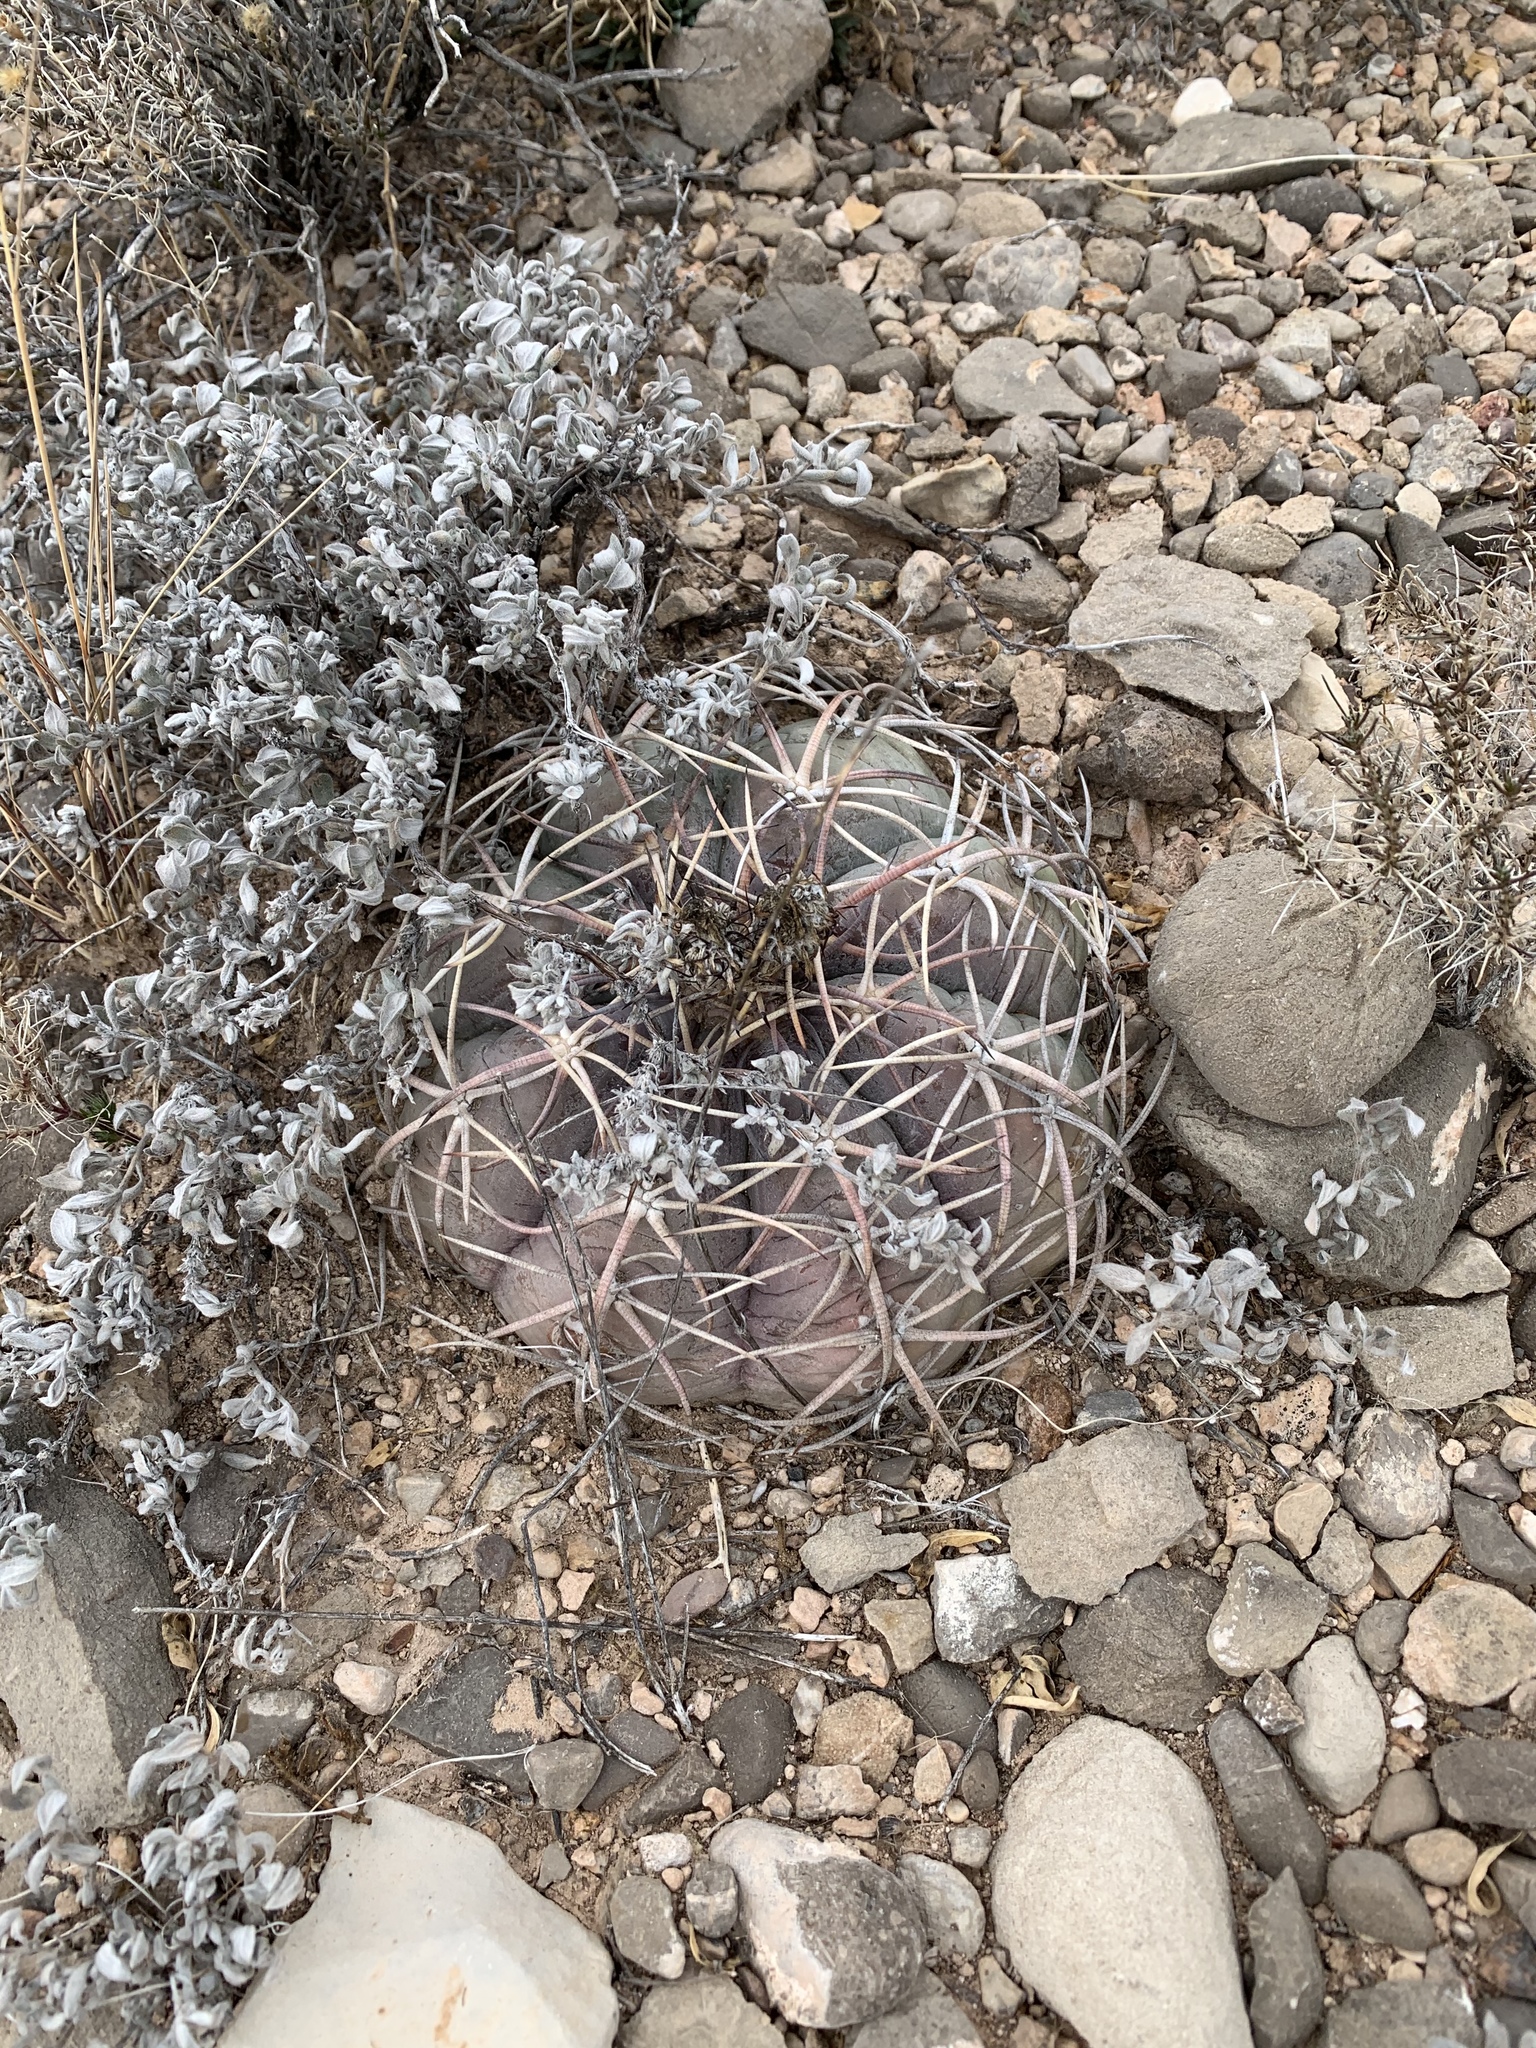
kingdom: Plantae
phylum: Tracheophyta
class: Magnoliopsida
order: Caryophyllales
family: Cactaceae
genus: Echinocactus
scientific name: Echinocactus horizonthalonius
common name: Devilshead
